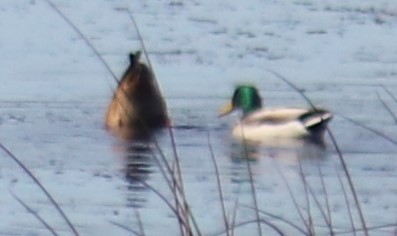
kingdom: Animalia
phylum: Chordata
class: Aves
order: Anseriformes
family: Anatidae
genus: Anas
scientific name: Anas platyrhynchos
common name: Mallard
